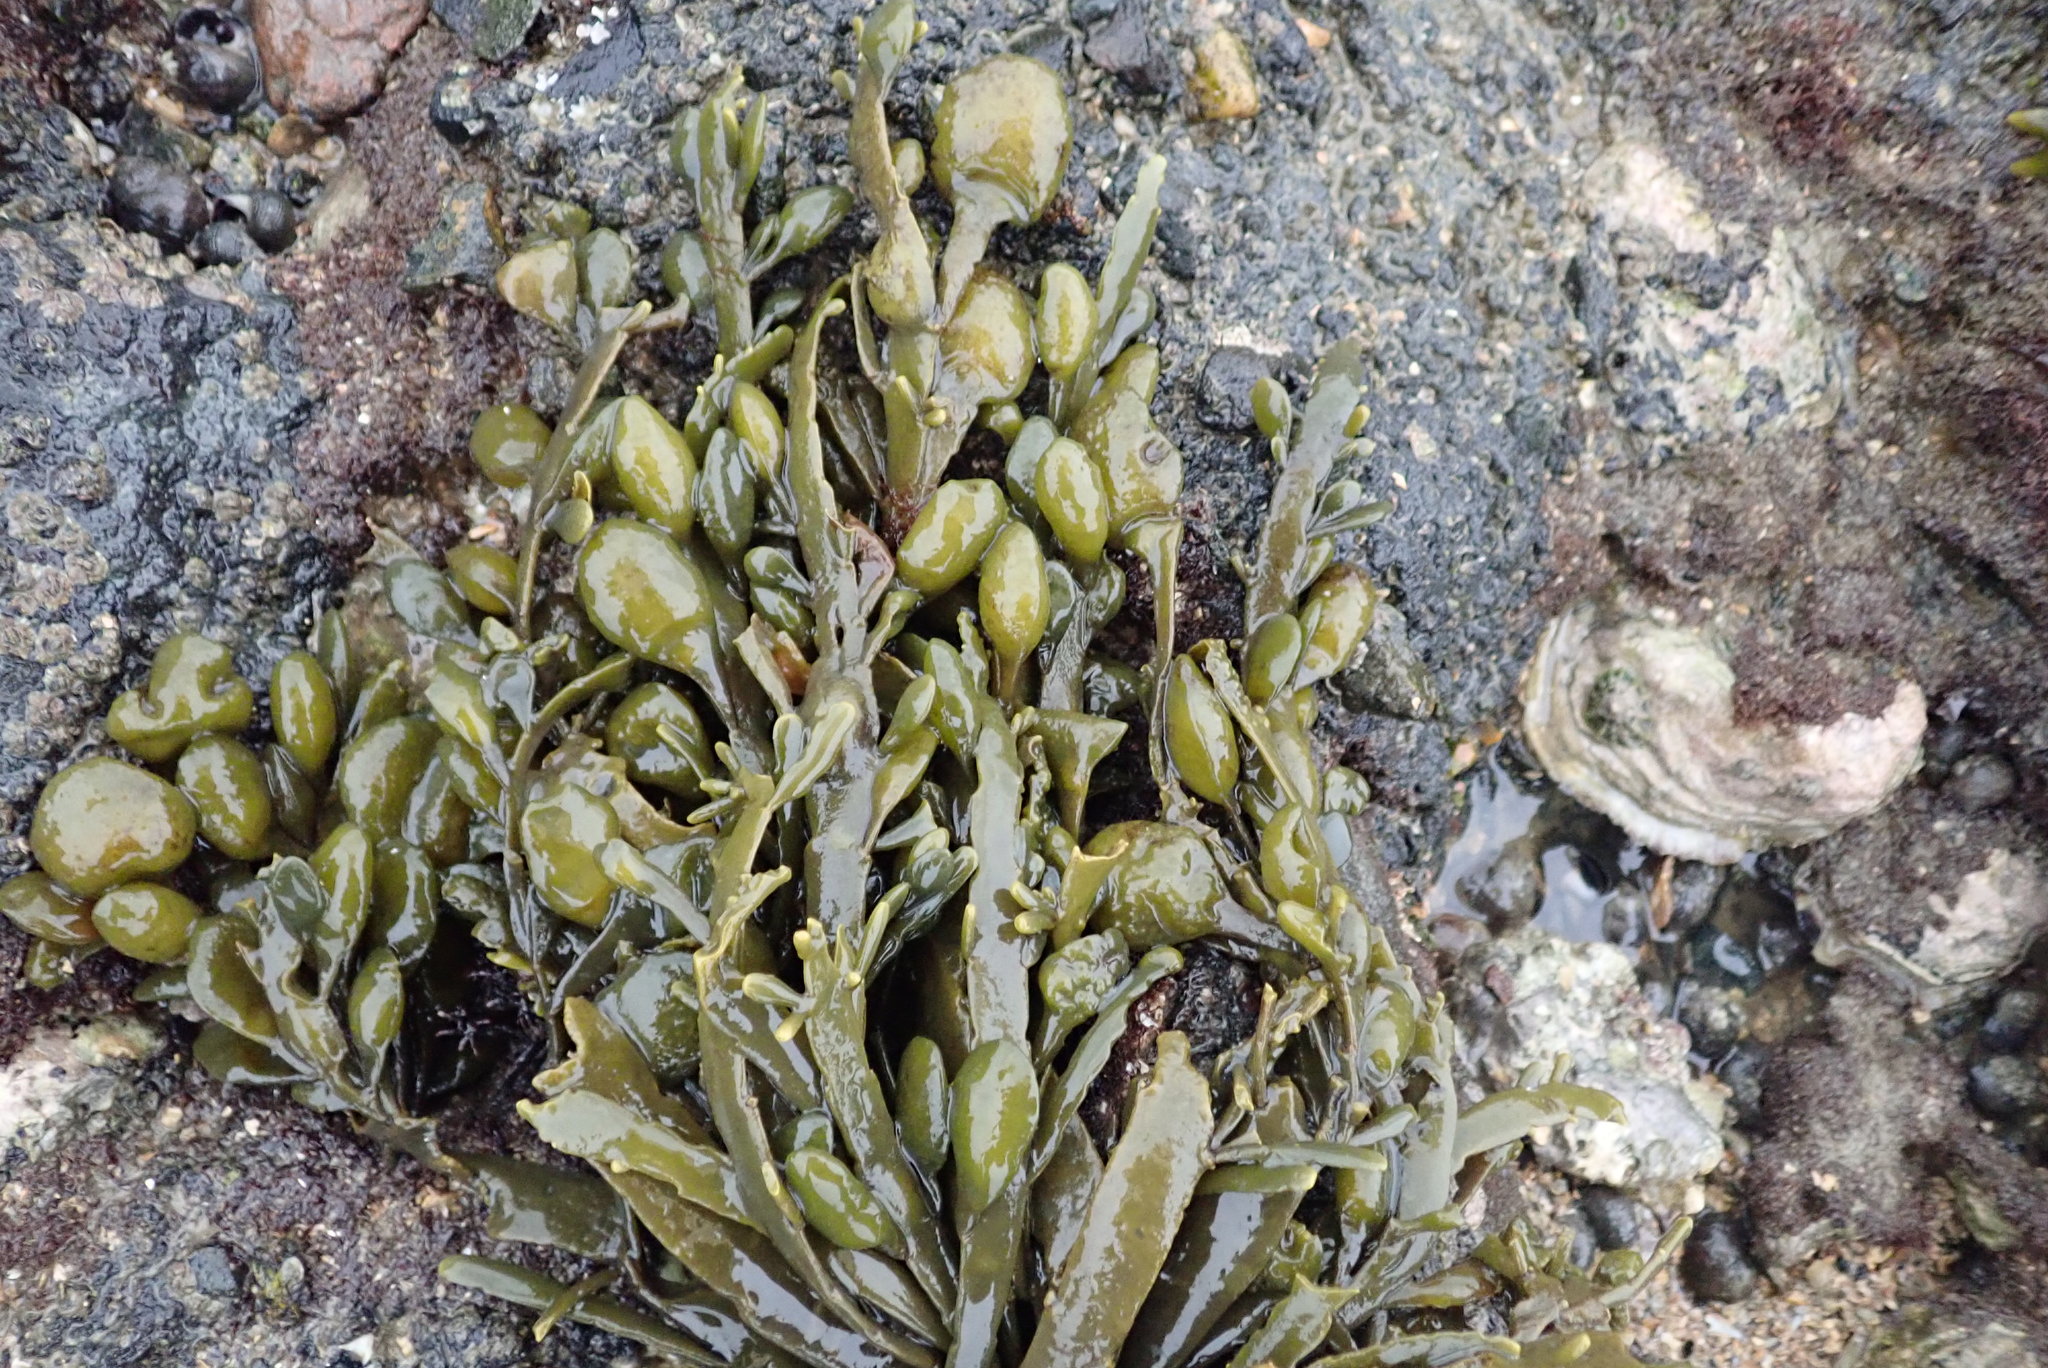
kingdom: Chromista
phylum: Ochrophyta
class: Phaeophyceae
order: Fucales
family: Fucaceae
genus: Ascophyllum
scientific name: Ascophyllum nodosum
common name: Knotted wrack
